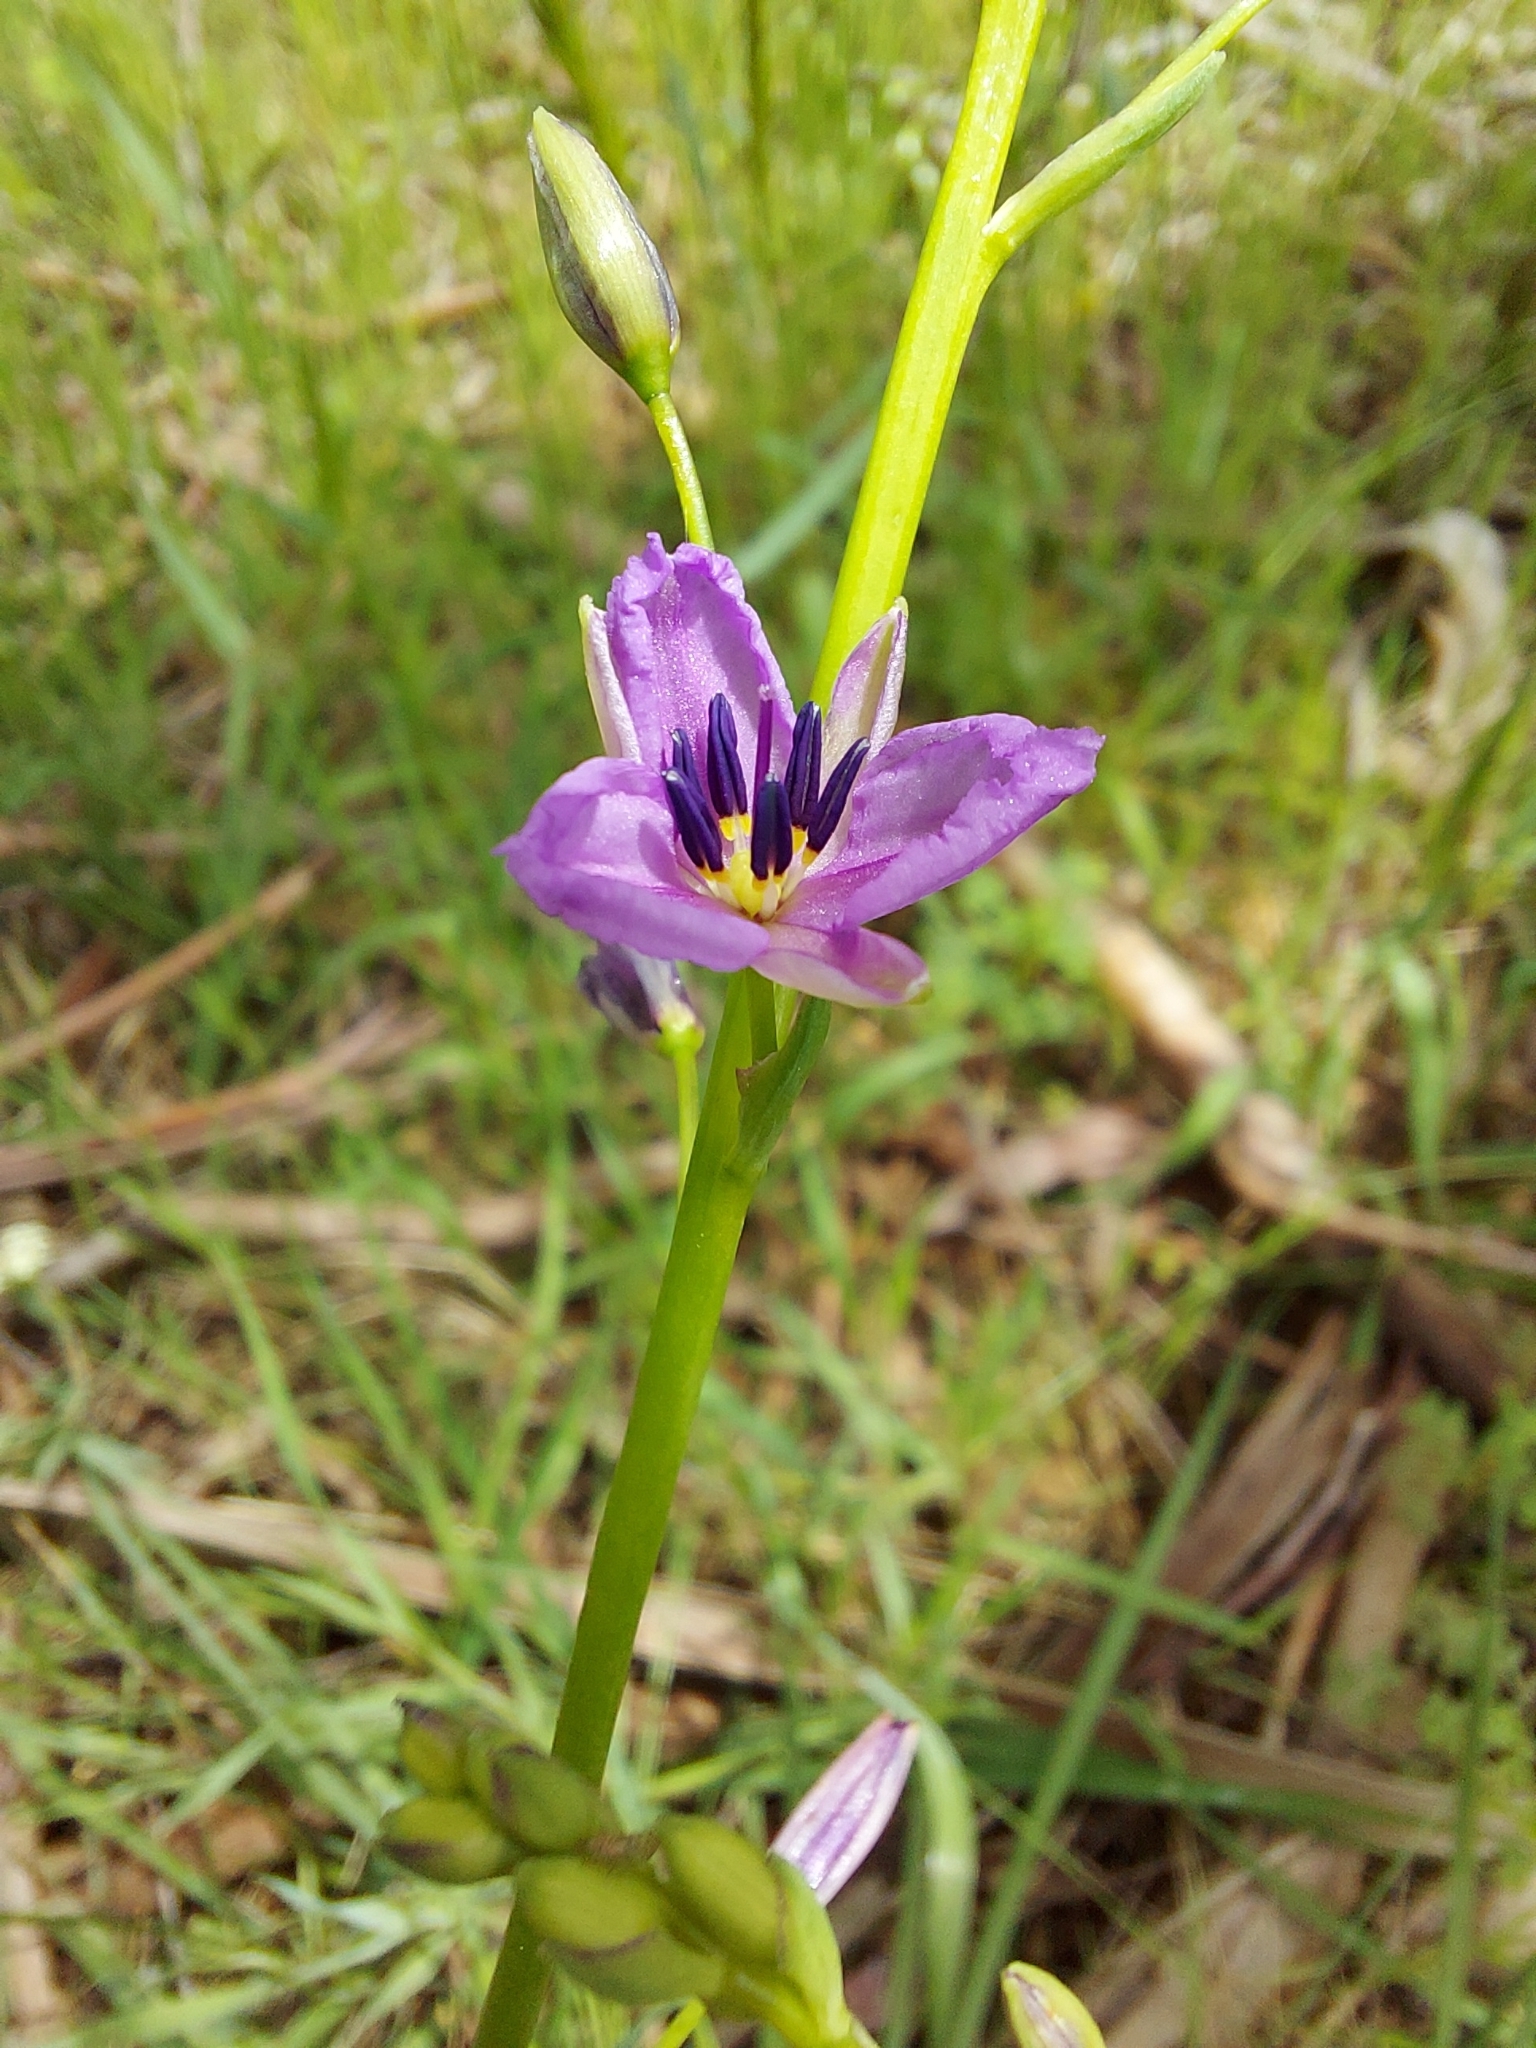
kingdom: Plantae
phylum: Tracheophyta
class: Liliopsida
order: Asparagales
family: Asparagaceae
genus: Arthropodium
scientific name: Arthropodium strictum
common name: Chocolate-lily
